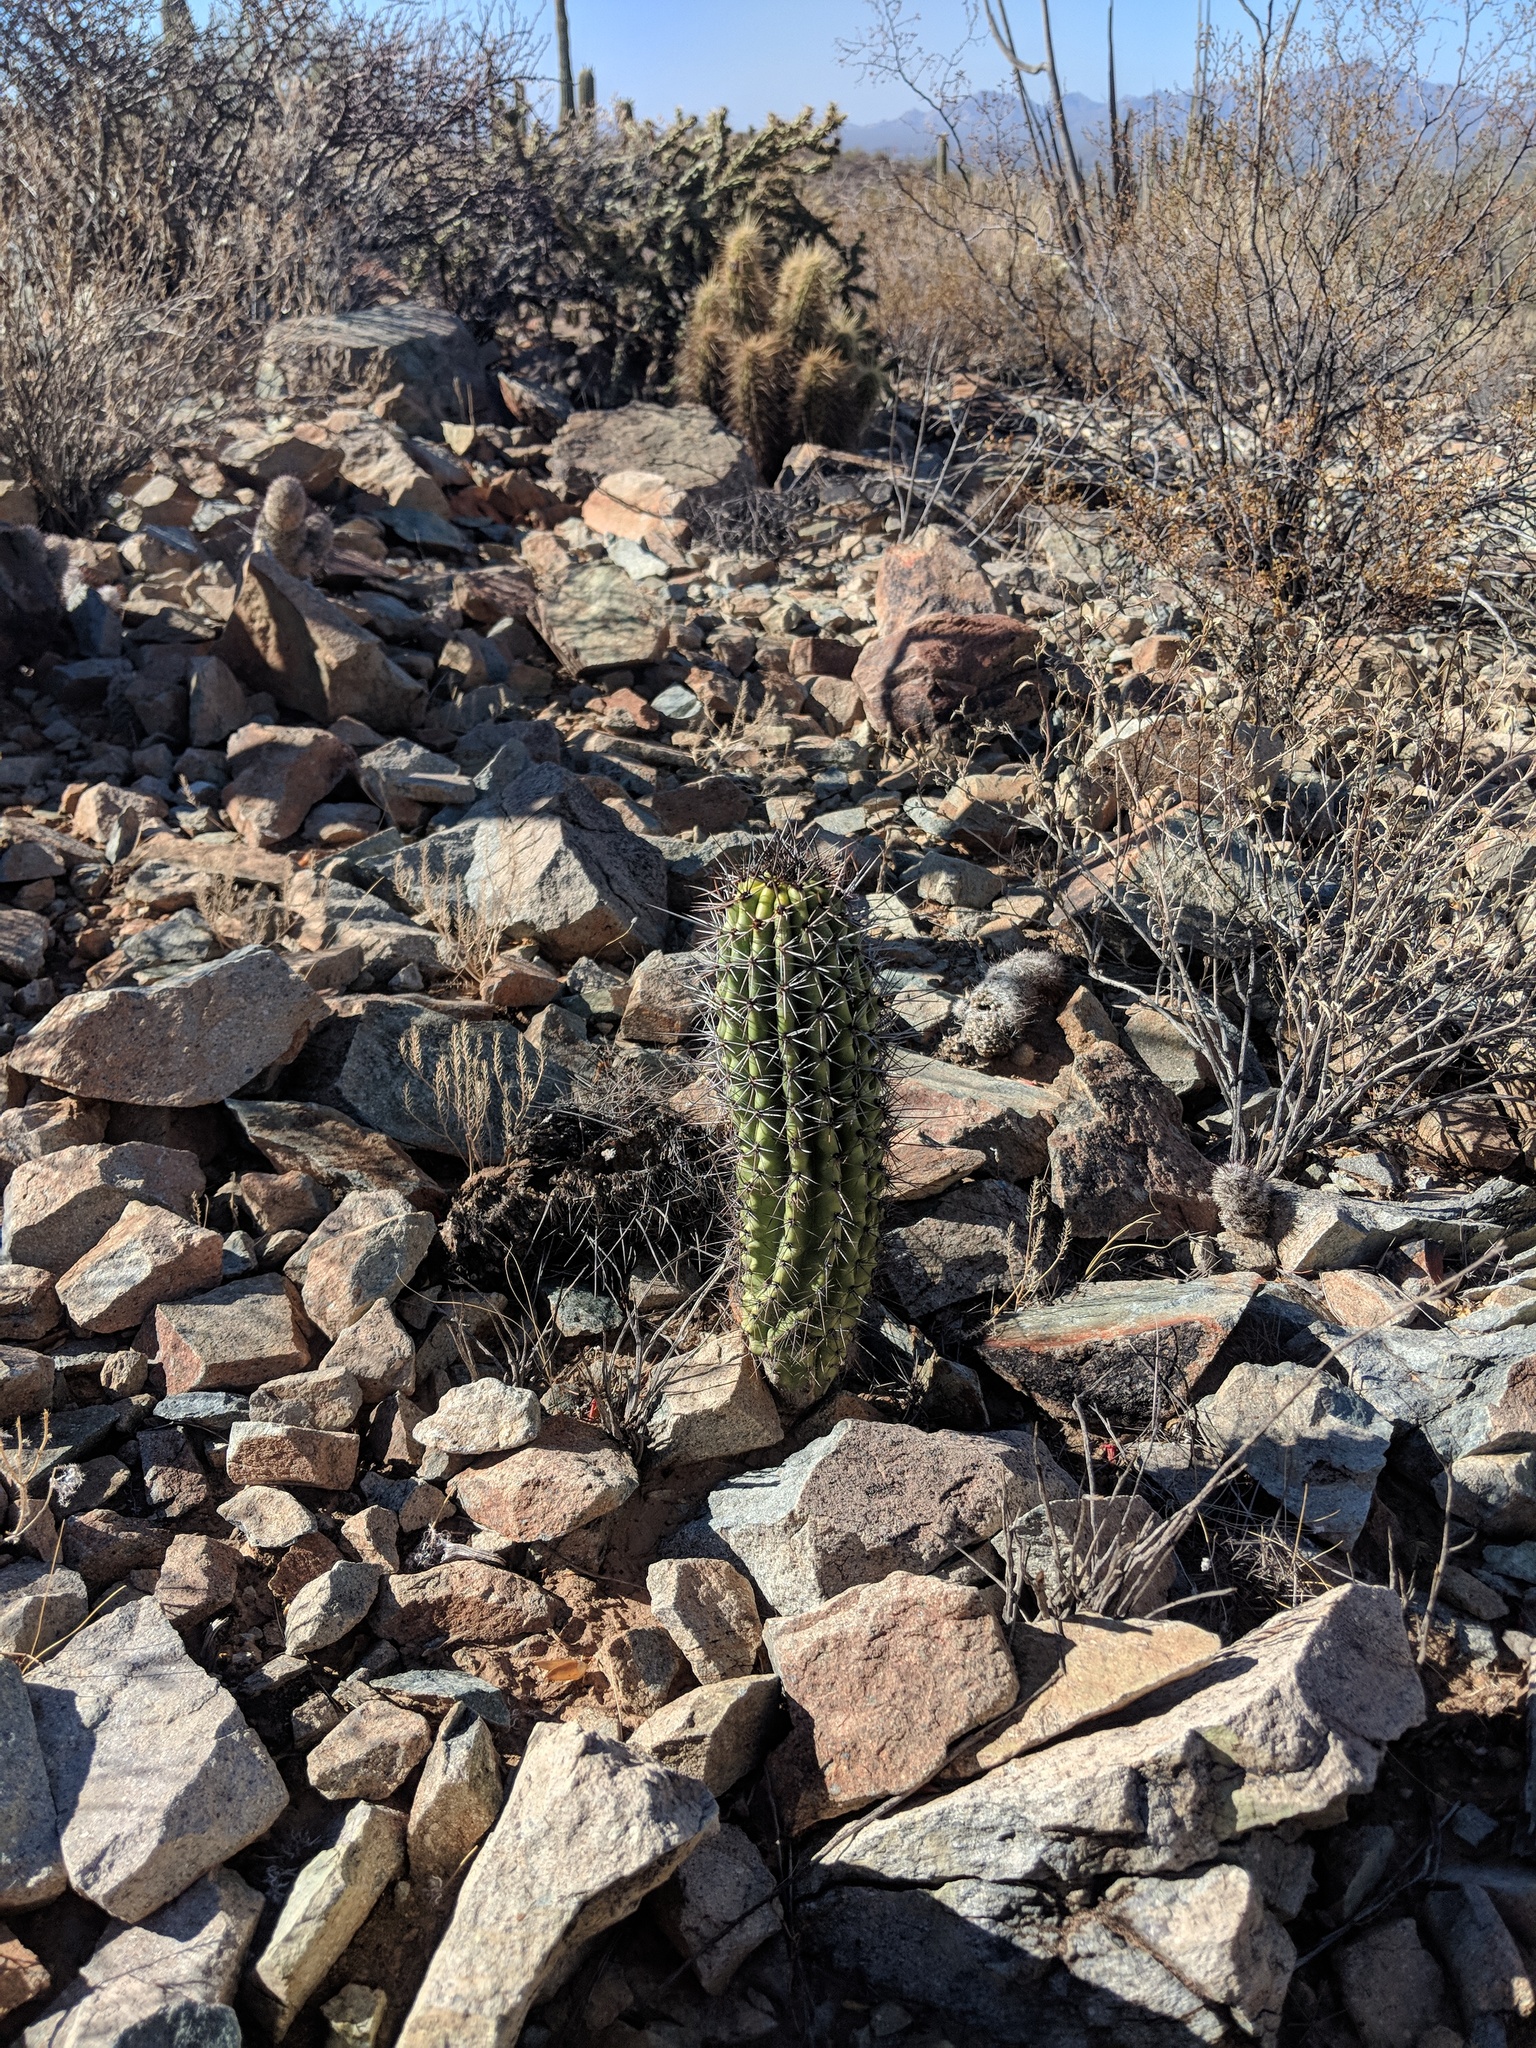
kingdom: Plantae
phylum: Tracheophyta
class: Magnoliopsida
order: Caryophyllales
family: Cactaceae
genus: Stenocereus
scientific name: Stenocereus thurberi
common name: Organ pipe cactus
